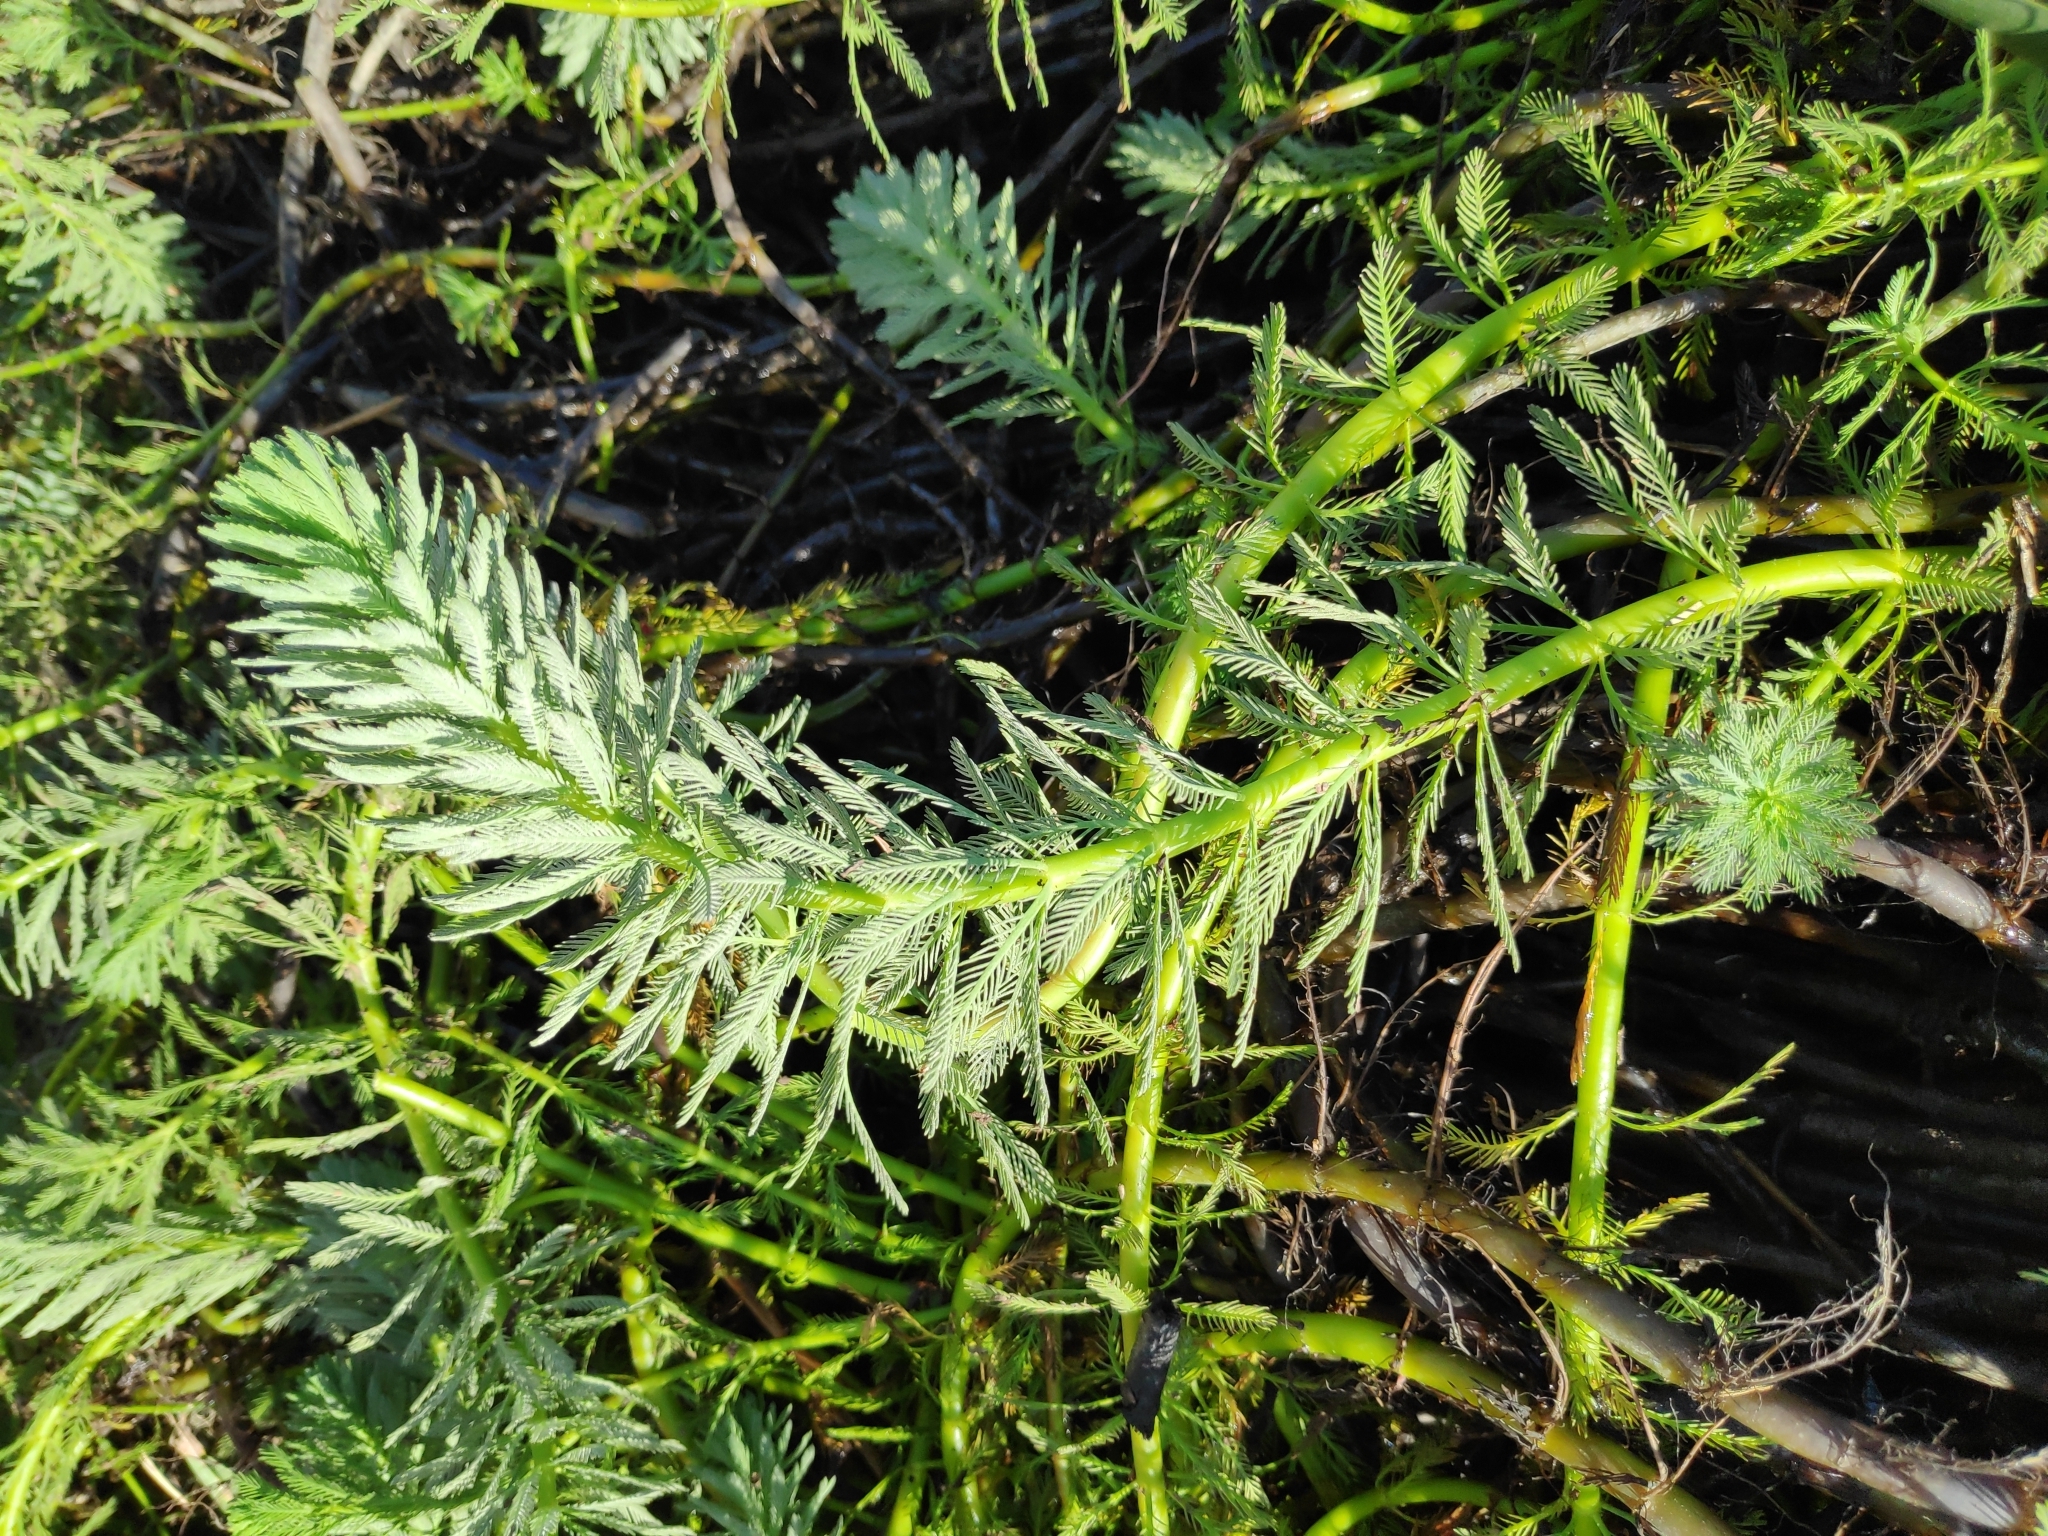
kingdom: Plantae
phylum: Tracheophyta
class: Magnoliopsida
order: Saxifragales
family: Haloragaceae
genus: Myriophyllum
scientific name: Myriophyllum aquaticum
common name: Parrot's feather
